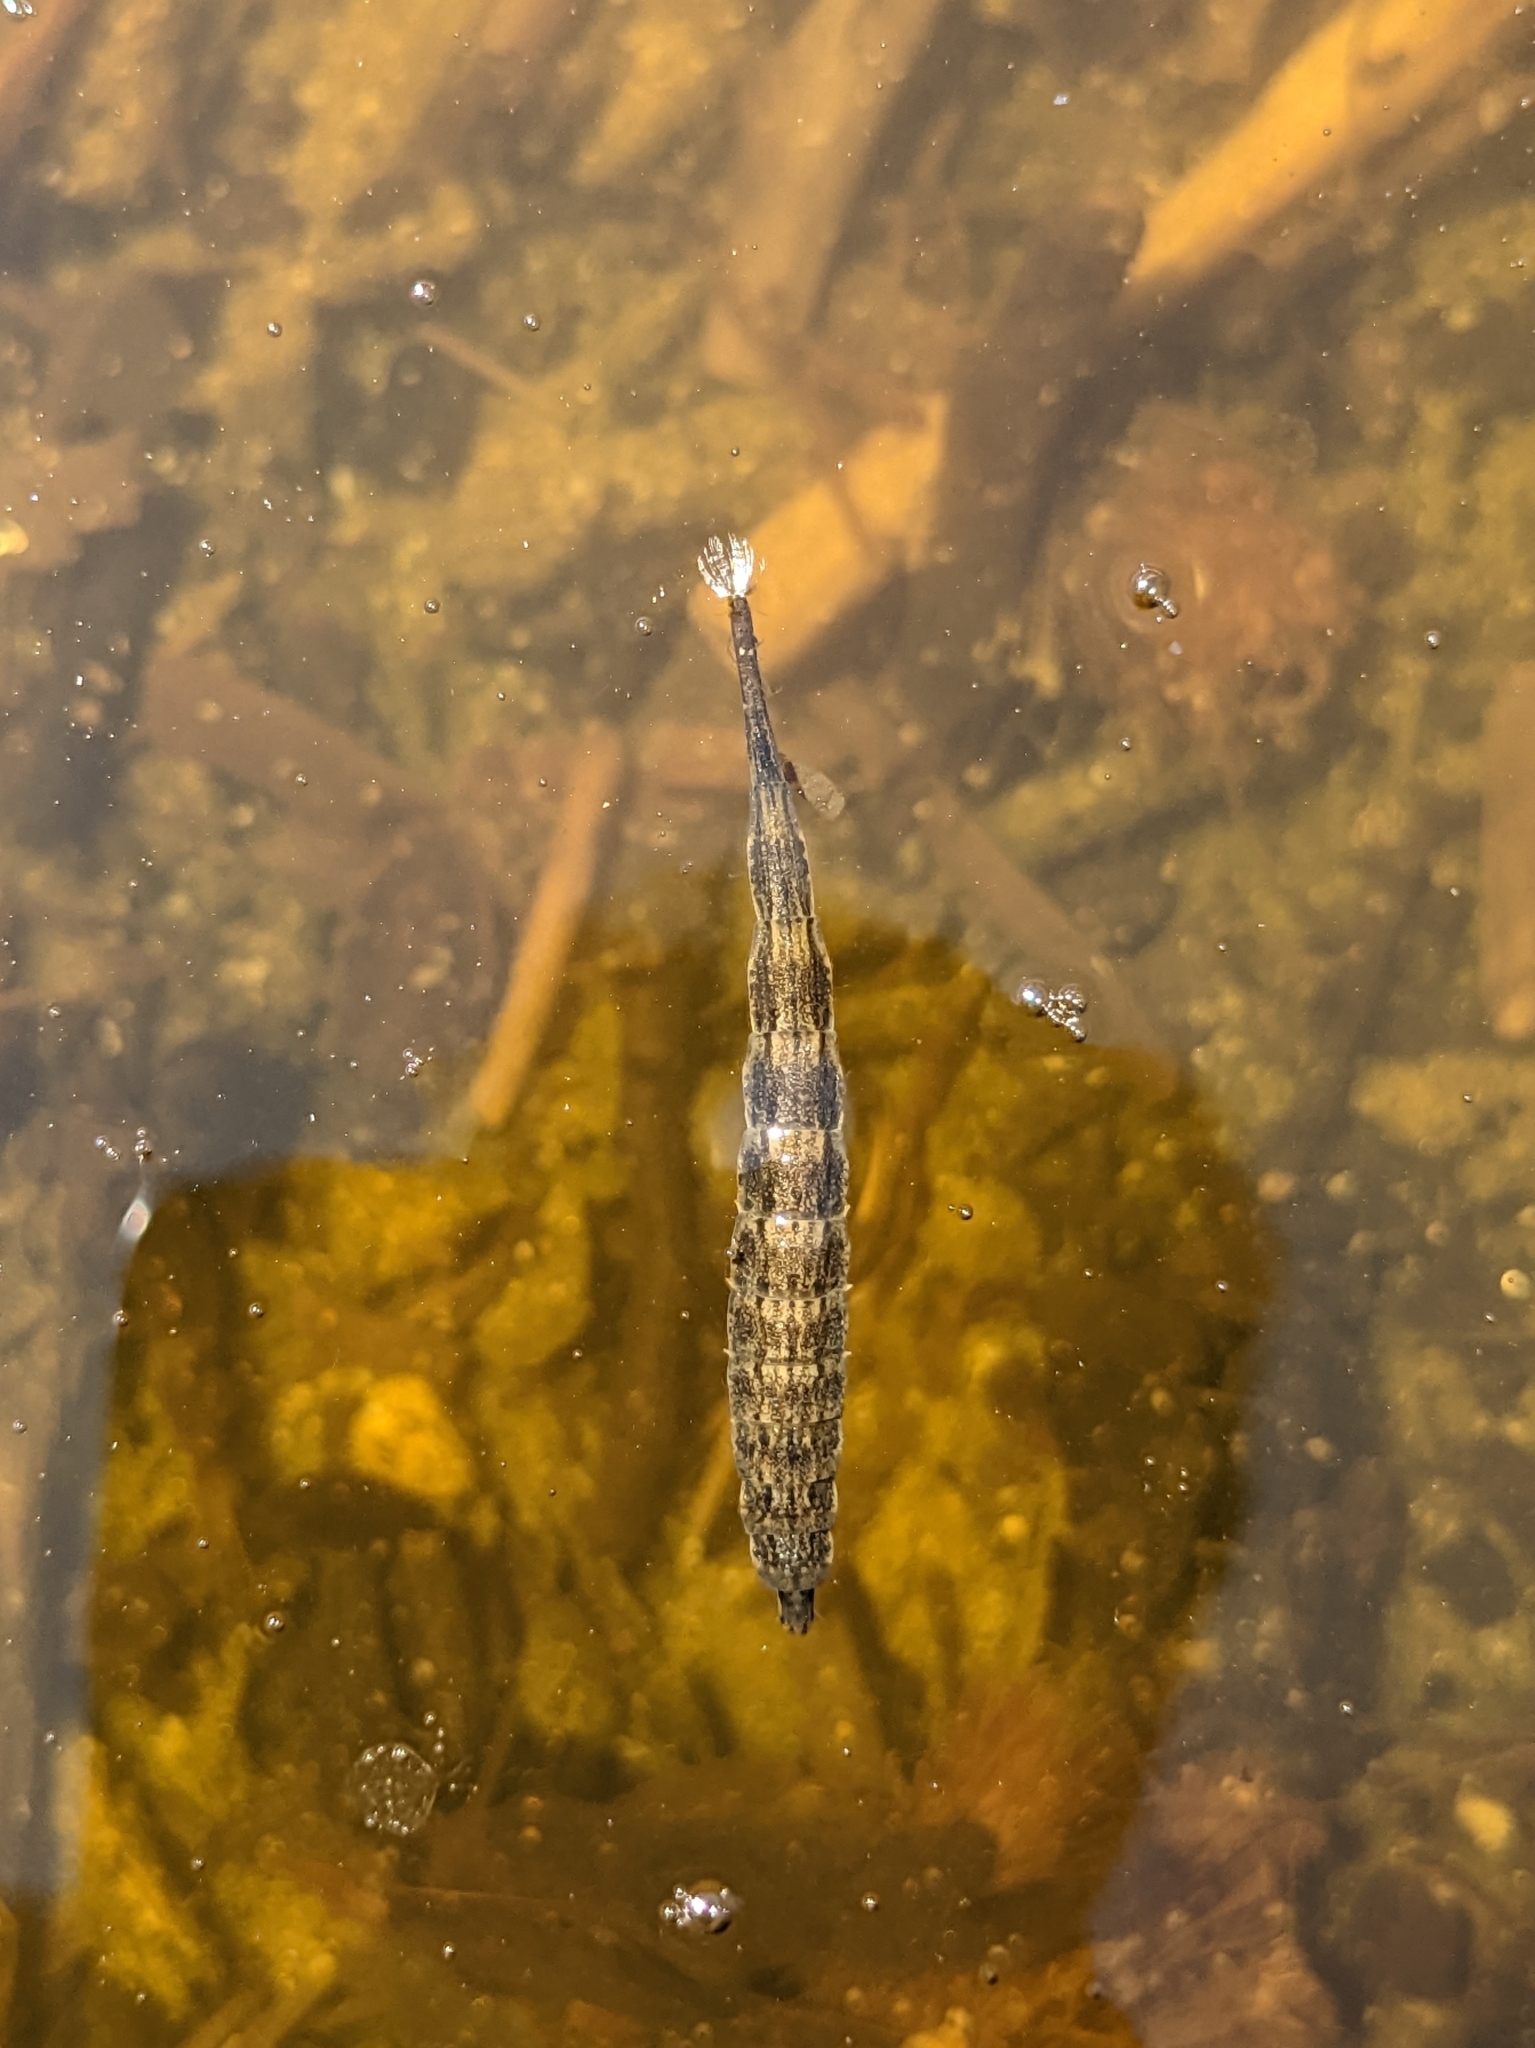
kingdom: Animalia
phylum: Arthropoda
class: Insecta
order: Diptera
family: Stratiomyidae
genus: Stratiomys
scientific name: Stratiomys
